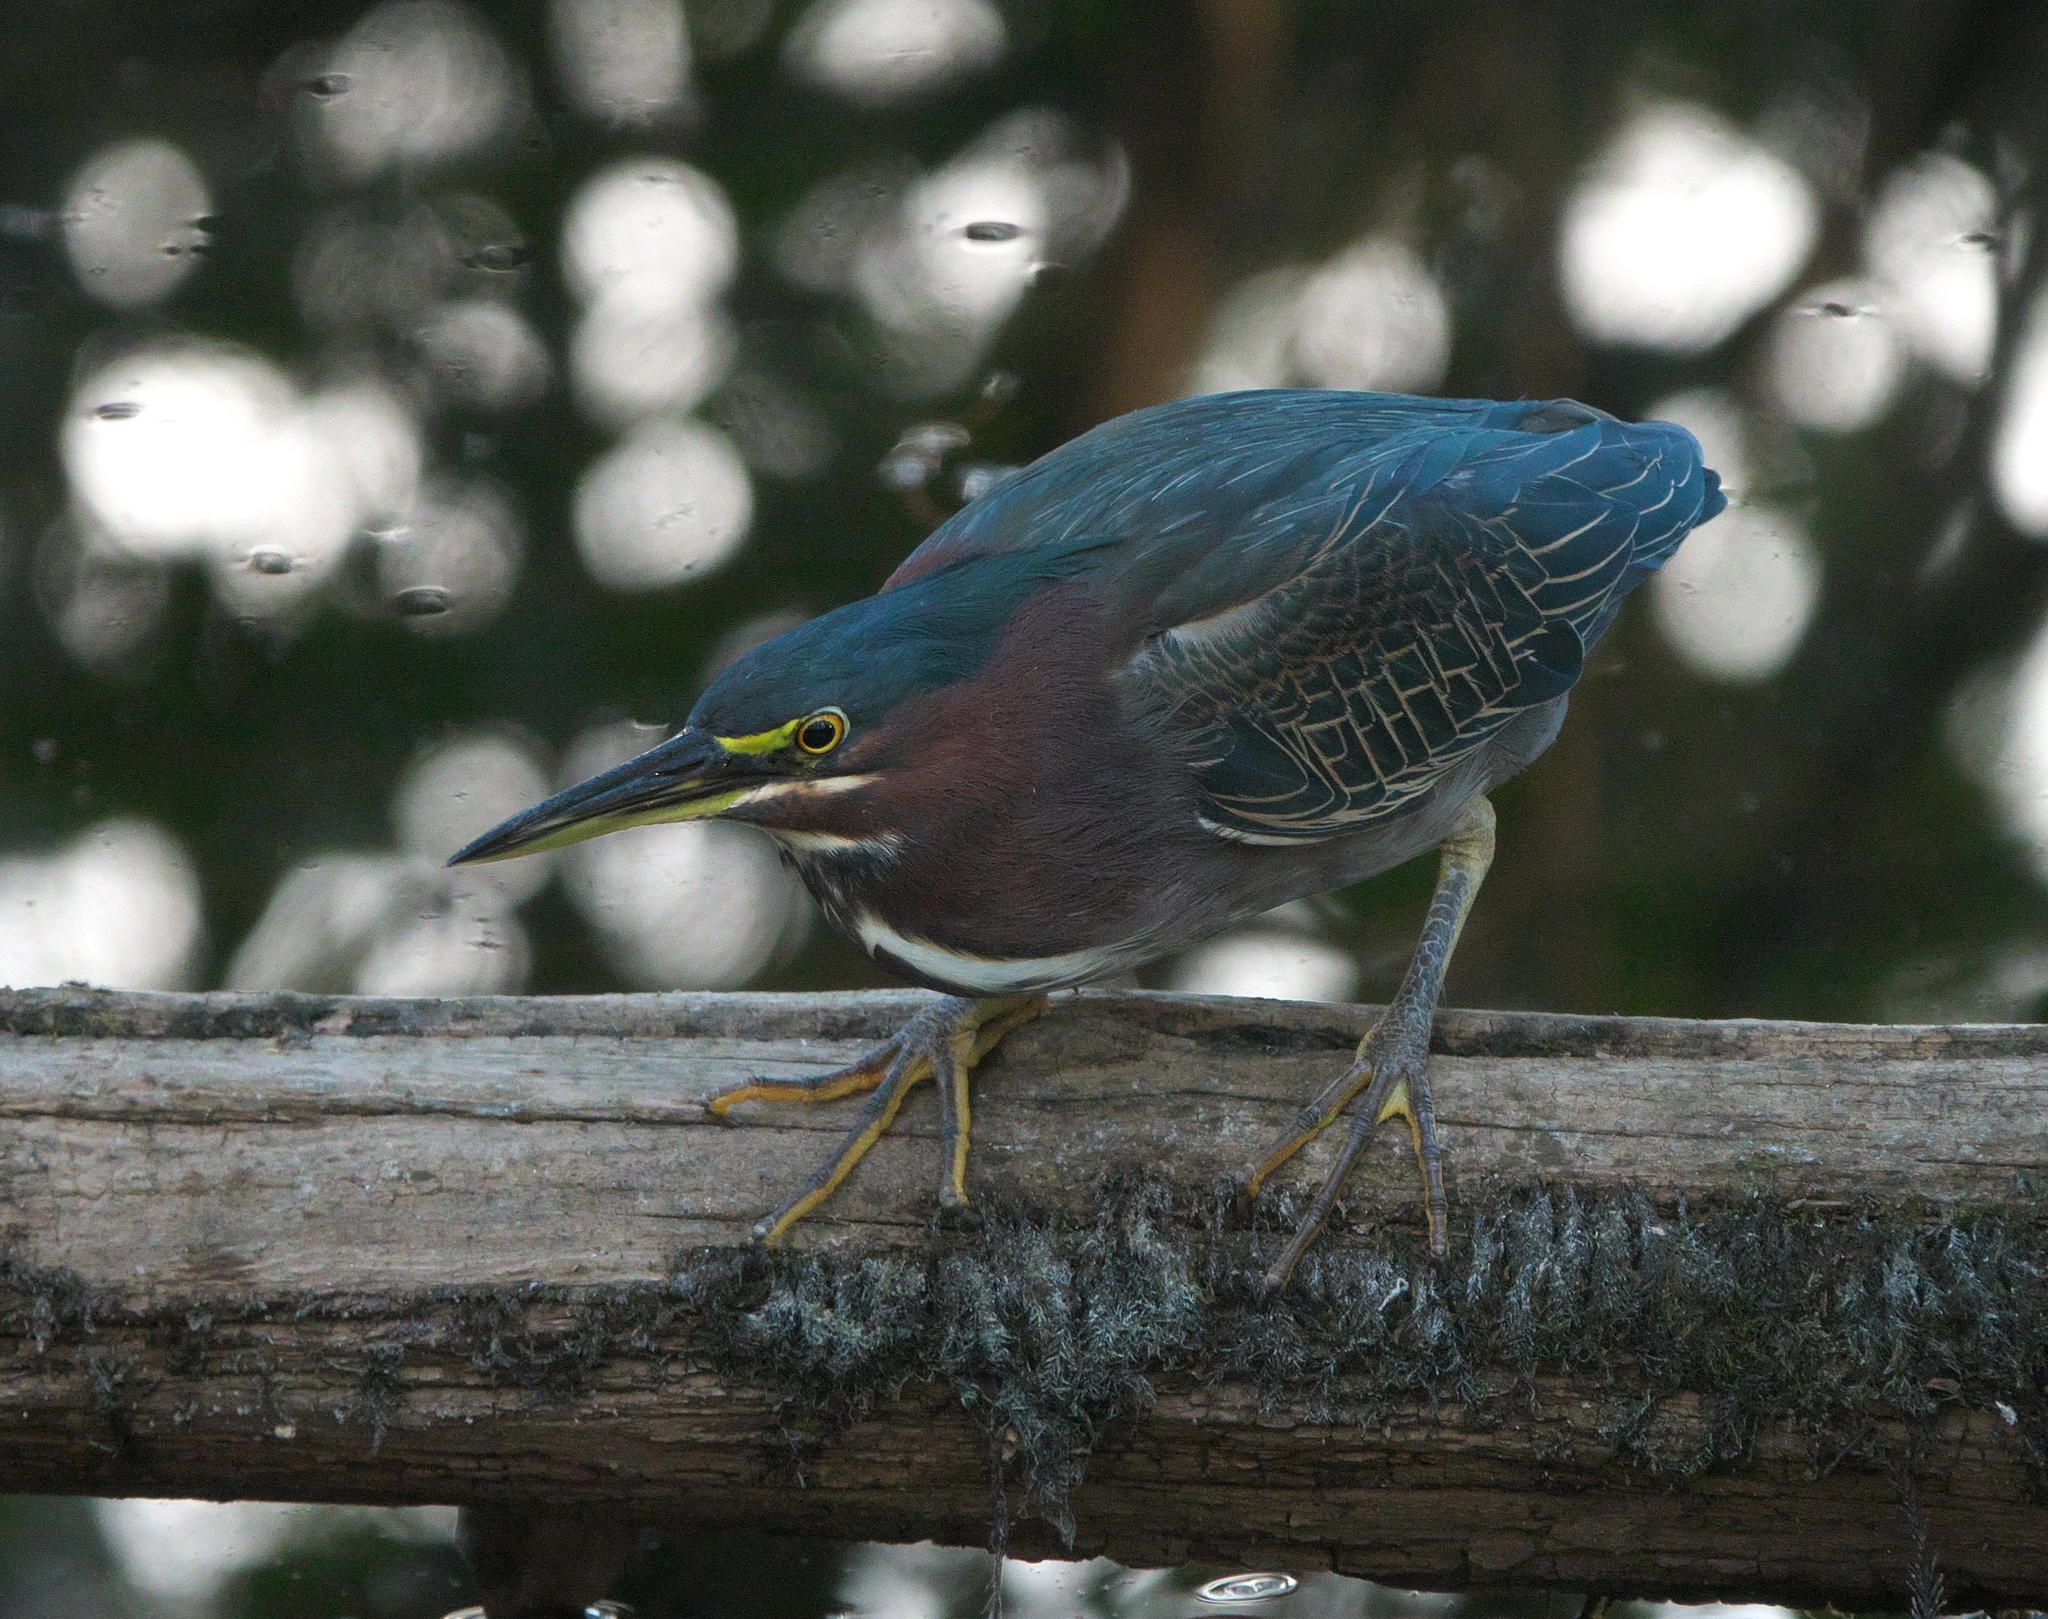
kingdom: Animalia
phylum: Chordata
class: Aves
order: Pelecaniformes
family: Ardeidae
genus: Butorides
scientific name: Butorides virescens
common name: Green heron
